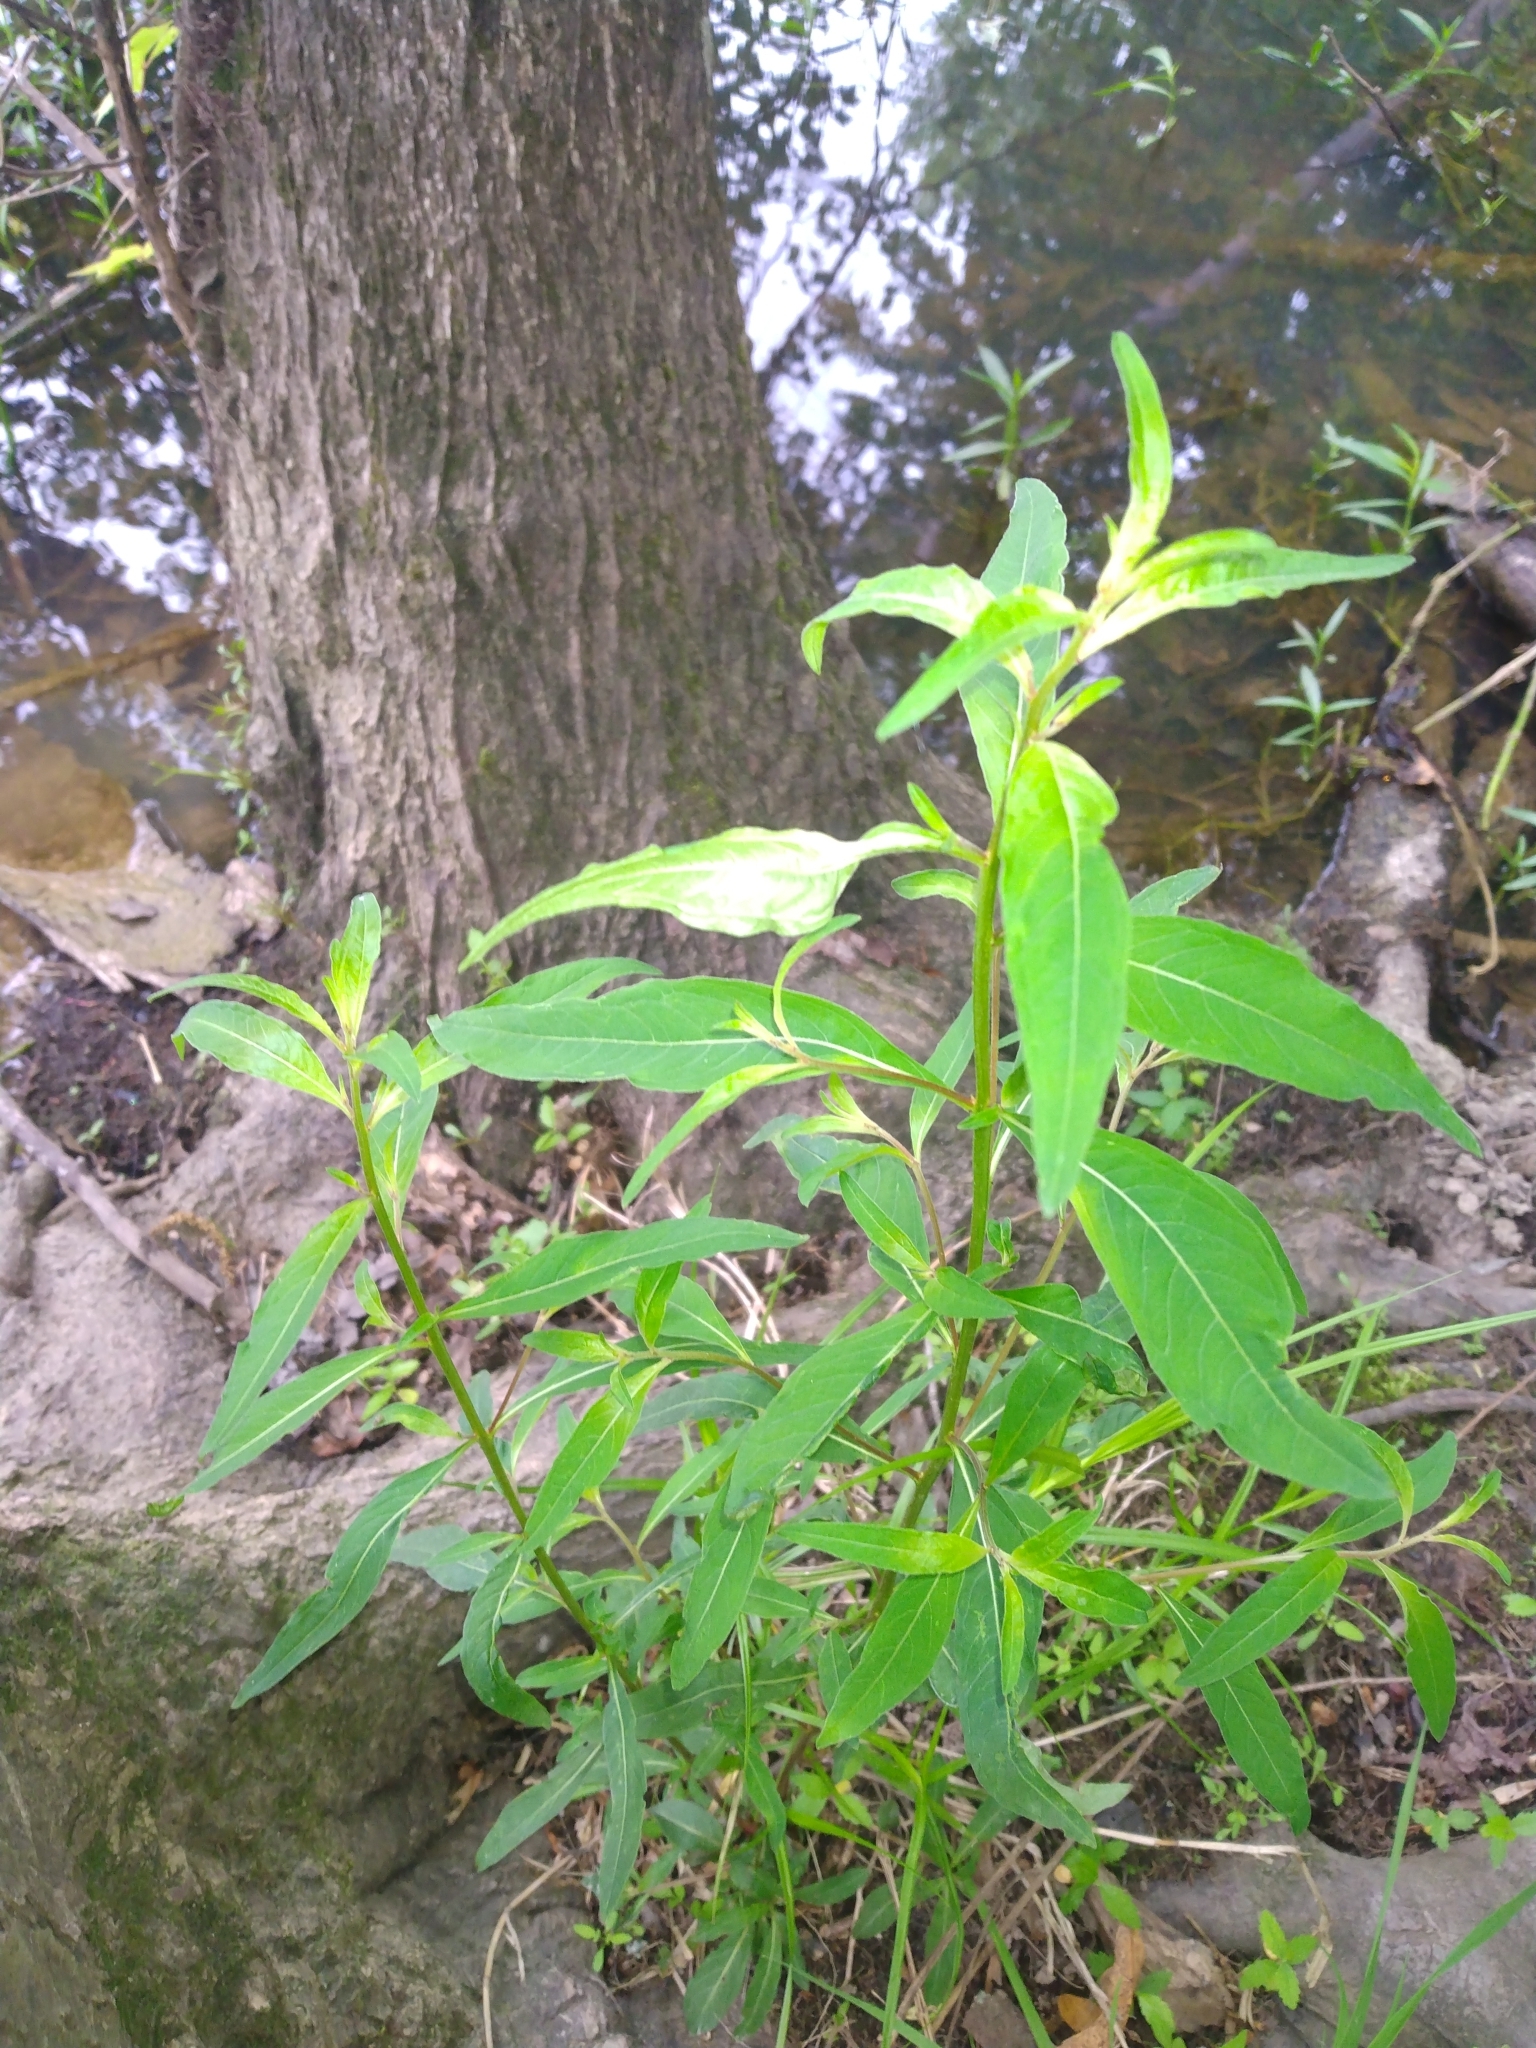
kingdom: Plantae
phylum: Tracheophyta
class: Magnoliopsida
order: Myrtales
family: Onagraceae
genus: Ludwigia
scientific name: Ludwigia alternifolia
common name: Rattlebox
